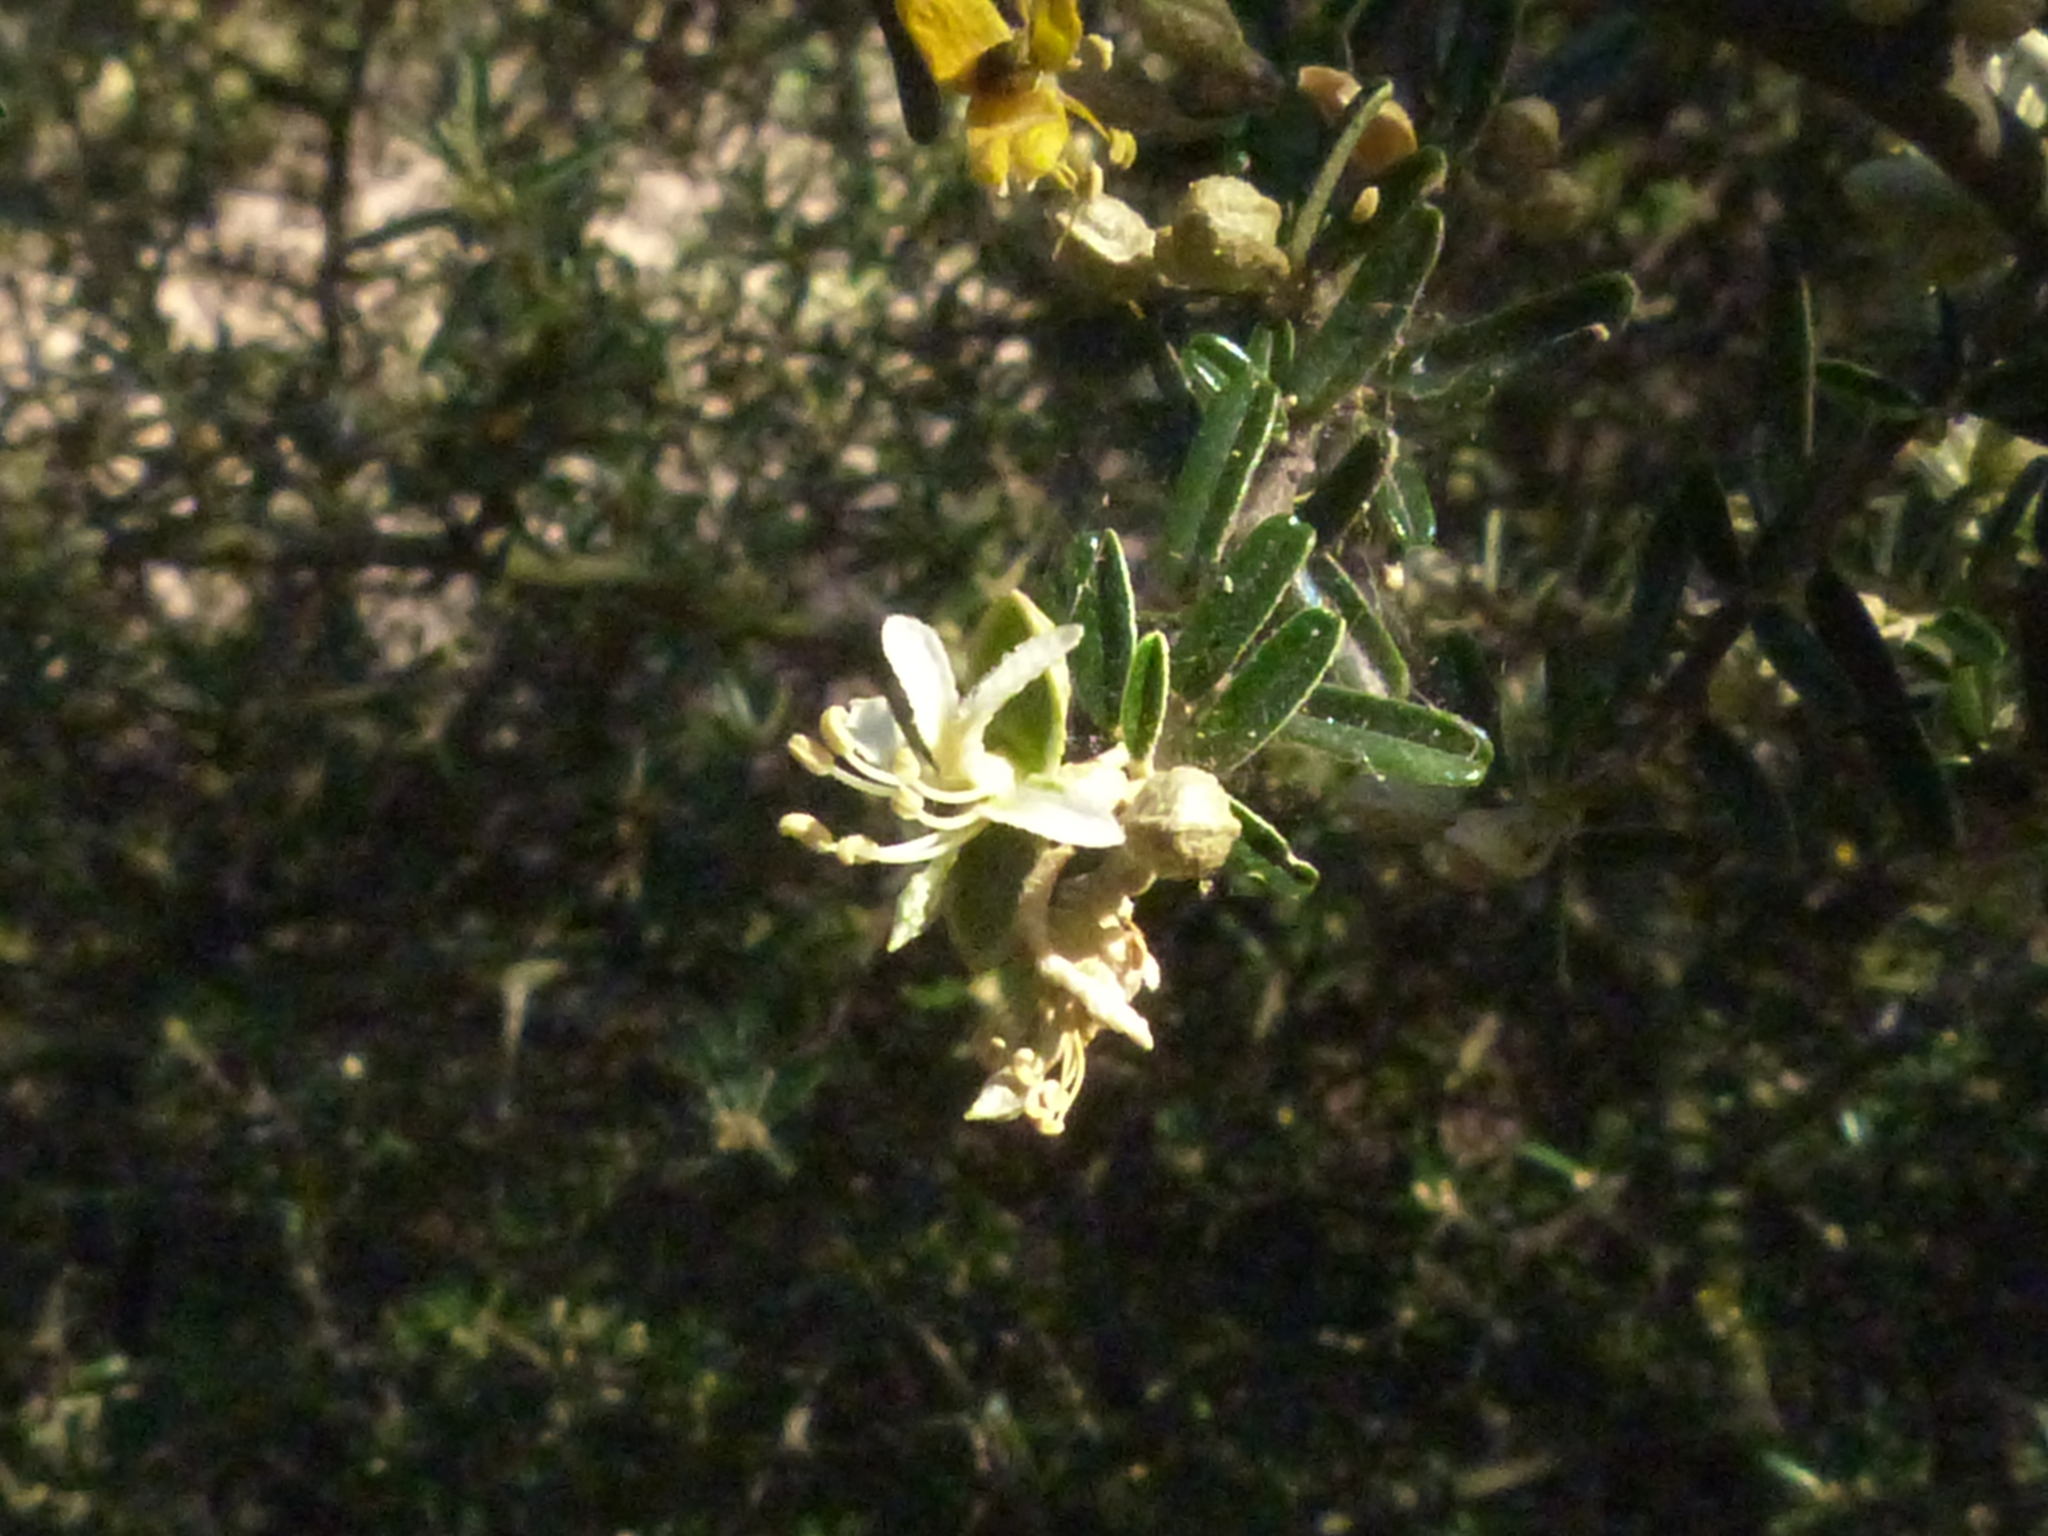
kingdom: Plantae
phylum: Tracheophyta
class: Magnoliopsida
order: Brassicales
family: Capparaceae
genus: Atamisquea
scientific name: Atamisquea emarginata
